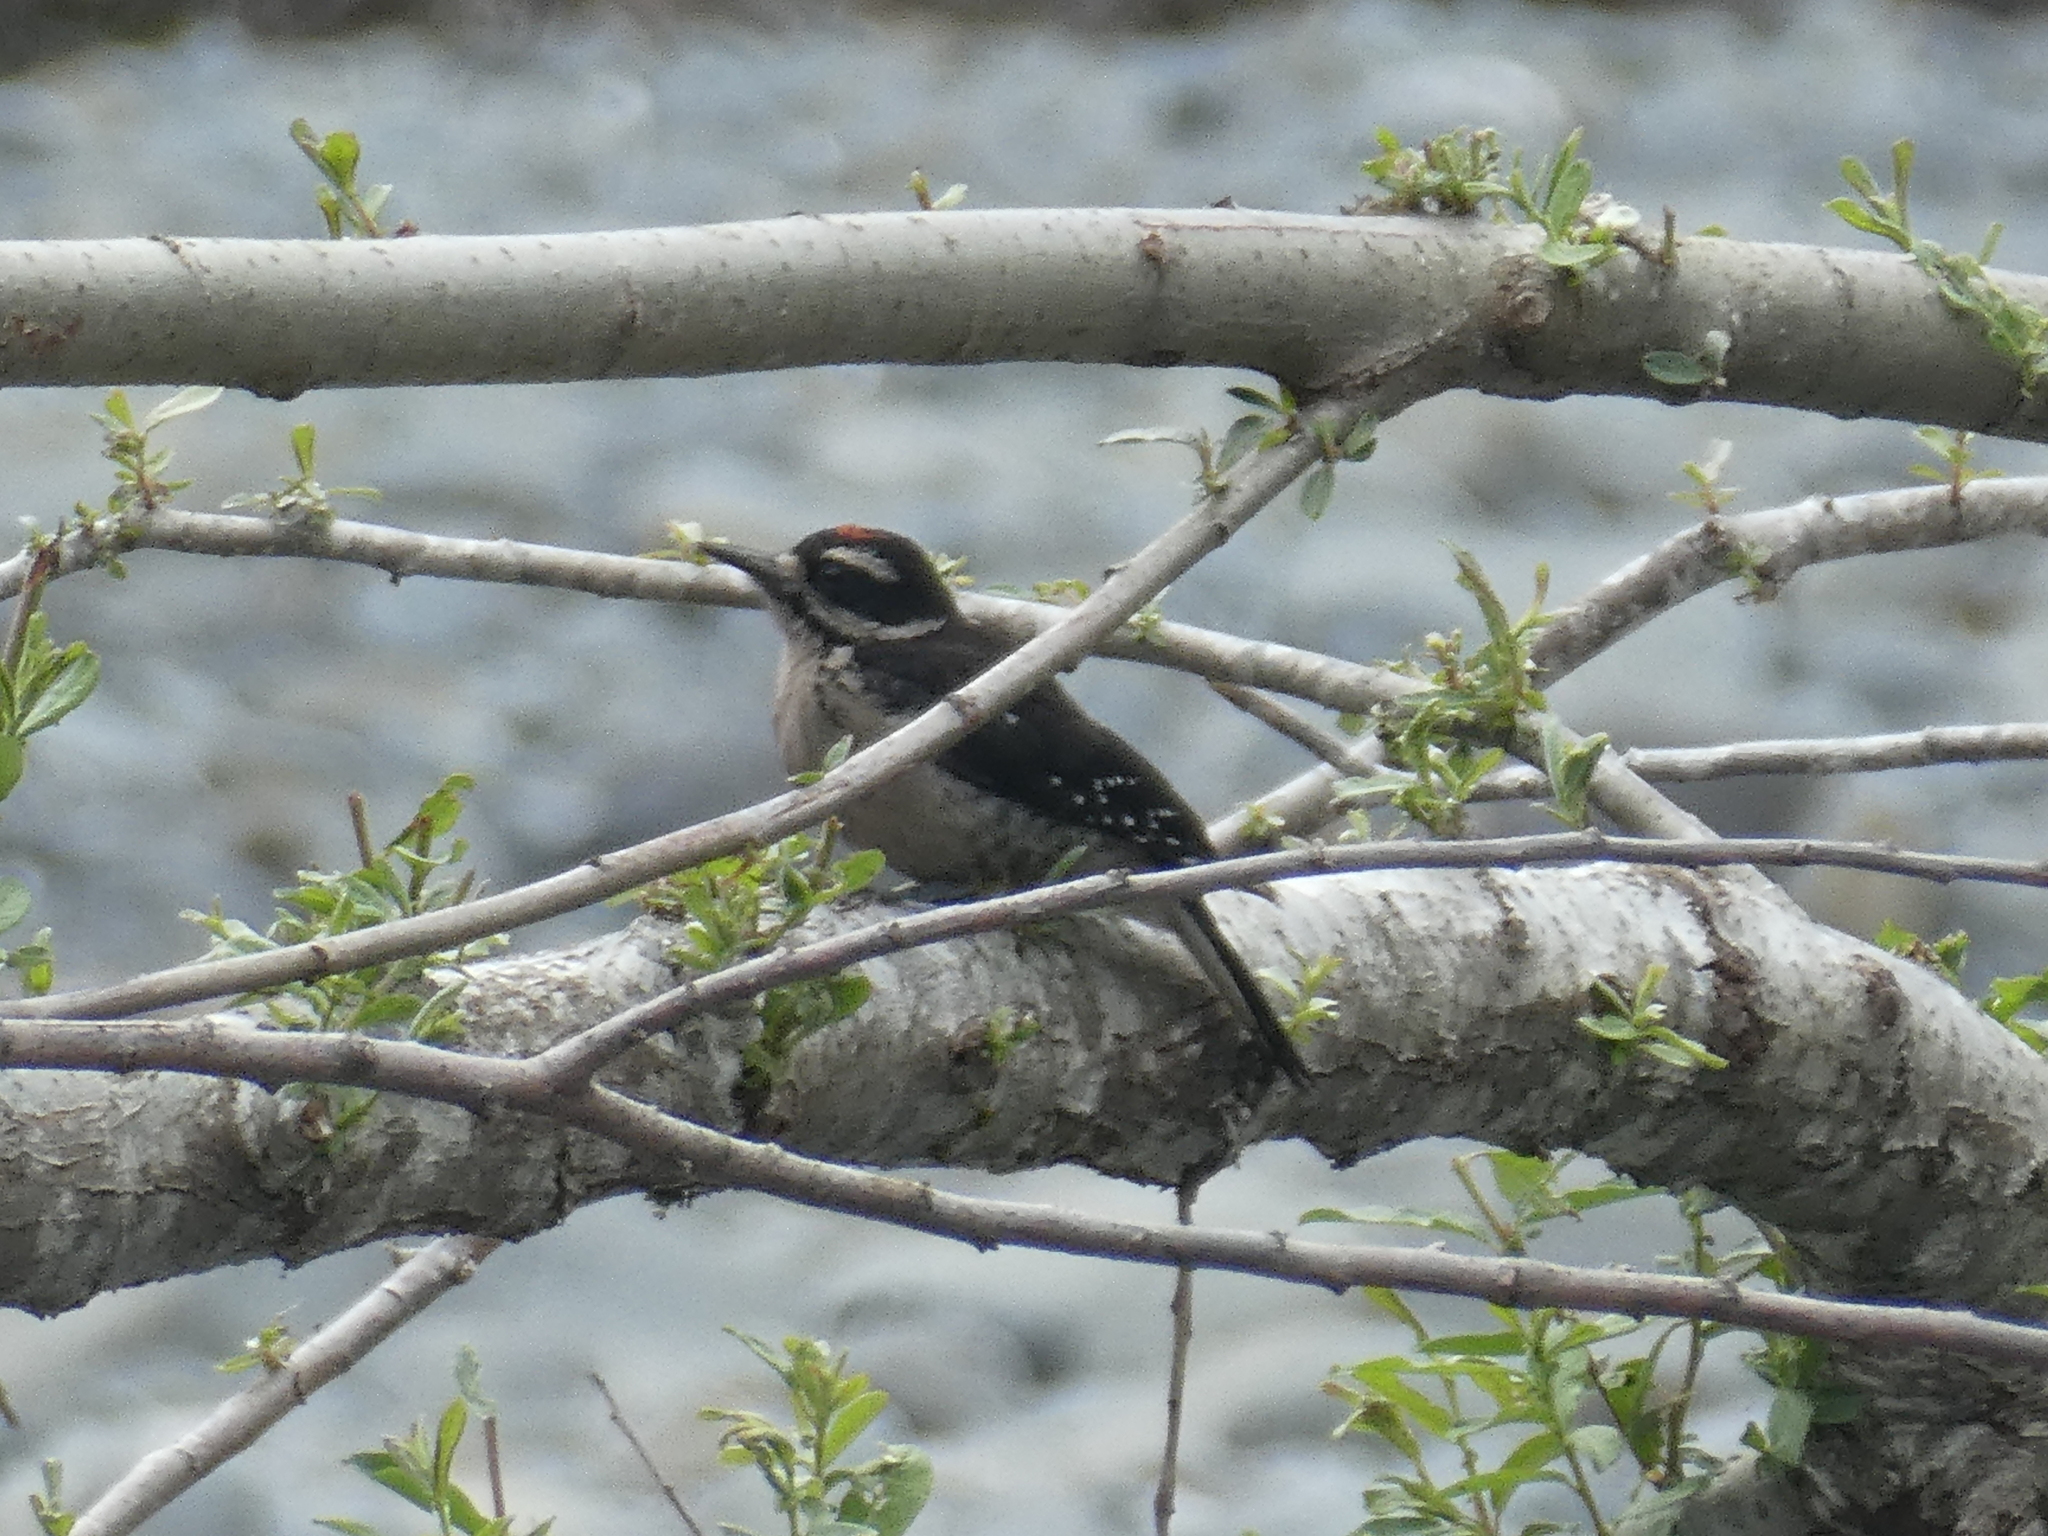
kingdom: Animalia
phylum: Chordata
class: Aves
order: Piciformes
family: Picidae
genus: Leuconotopicus
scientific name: Leuconotopicus villosus
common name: Hairy woodpecker
